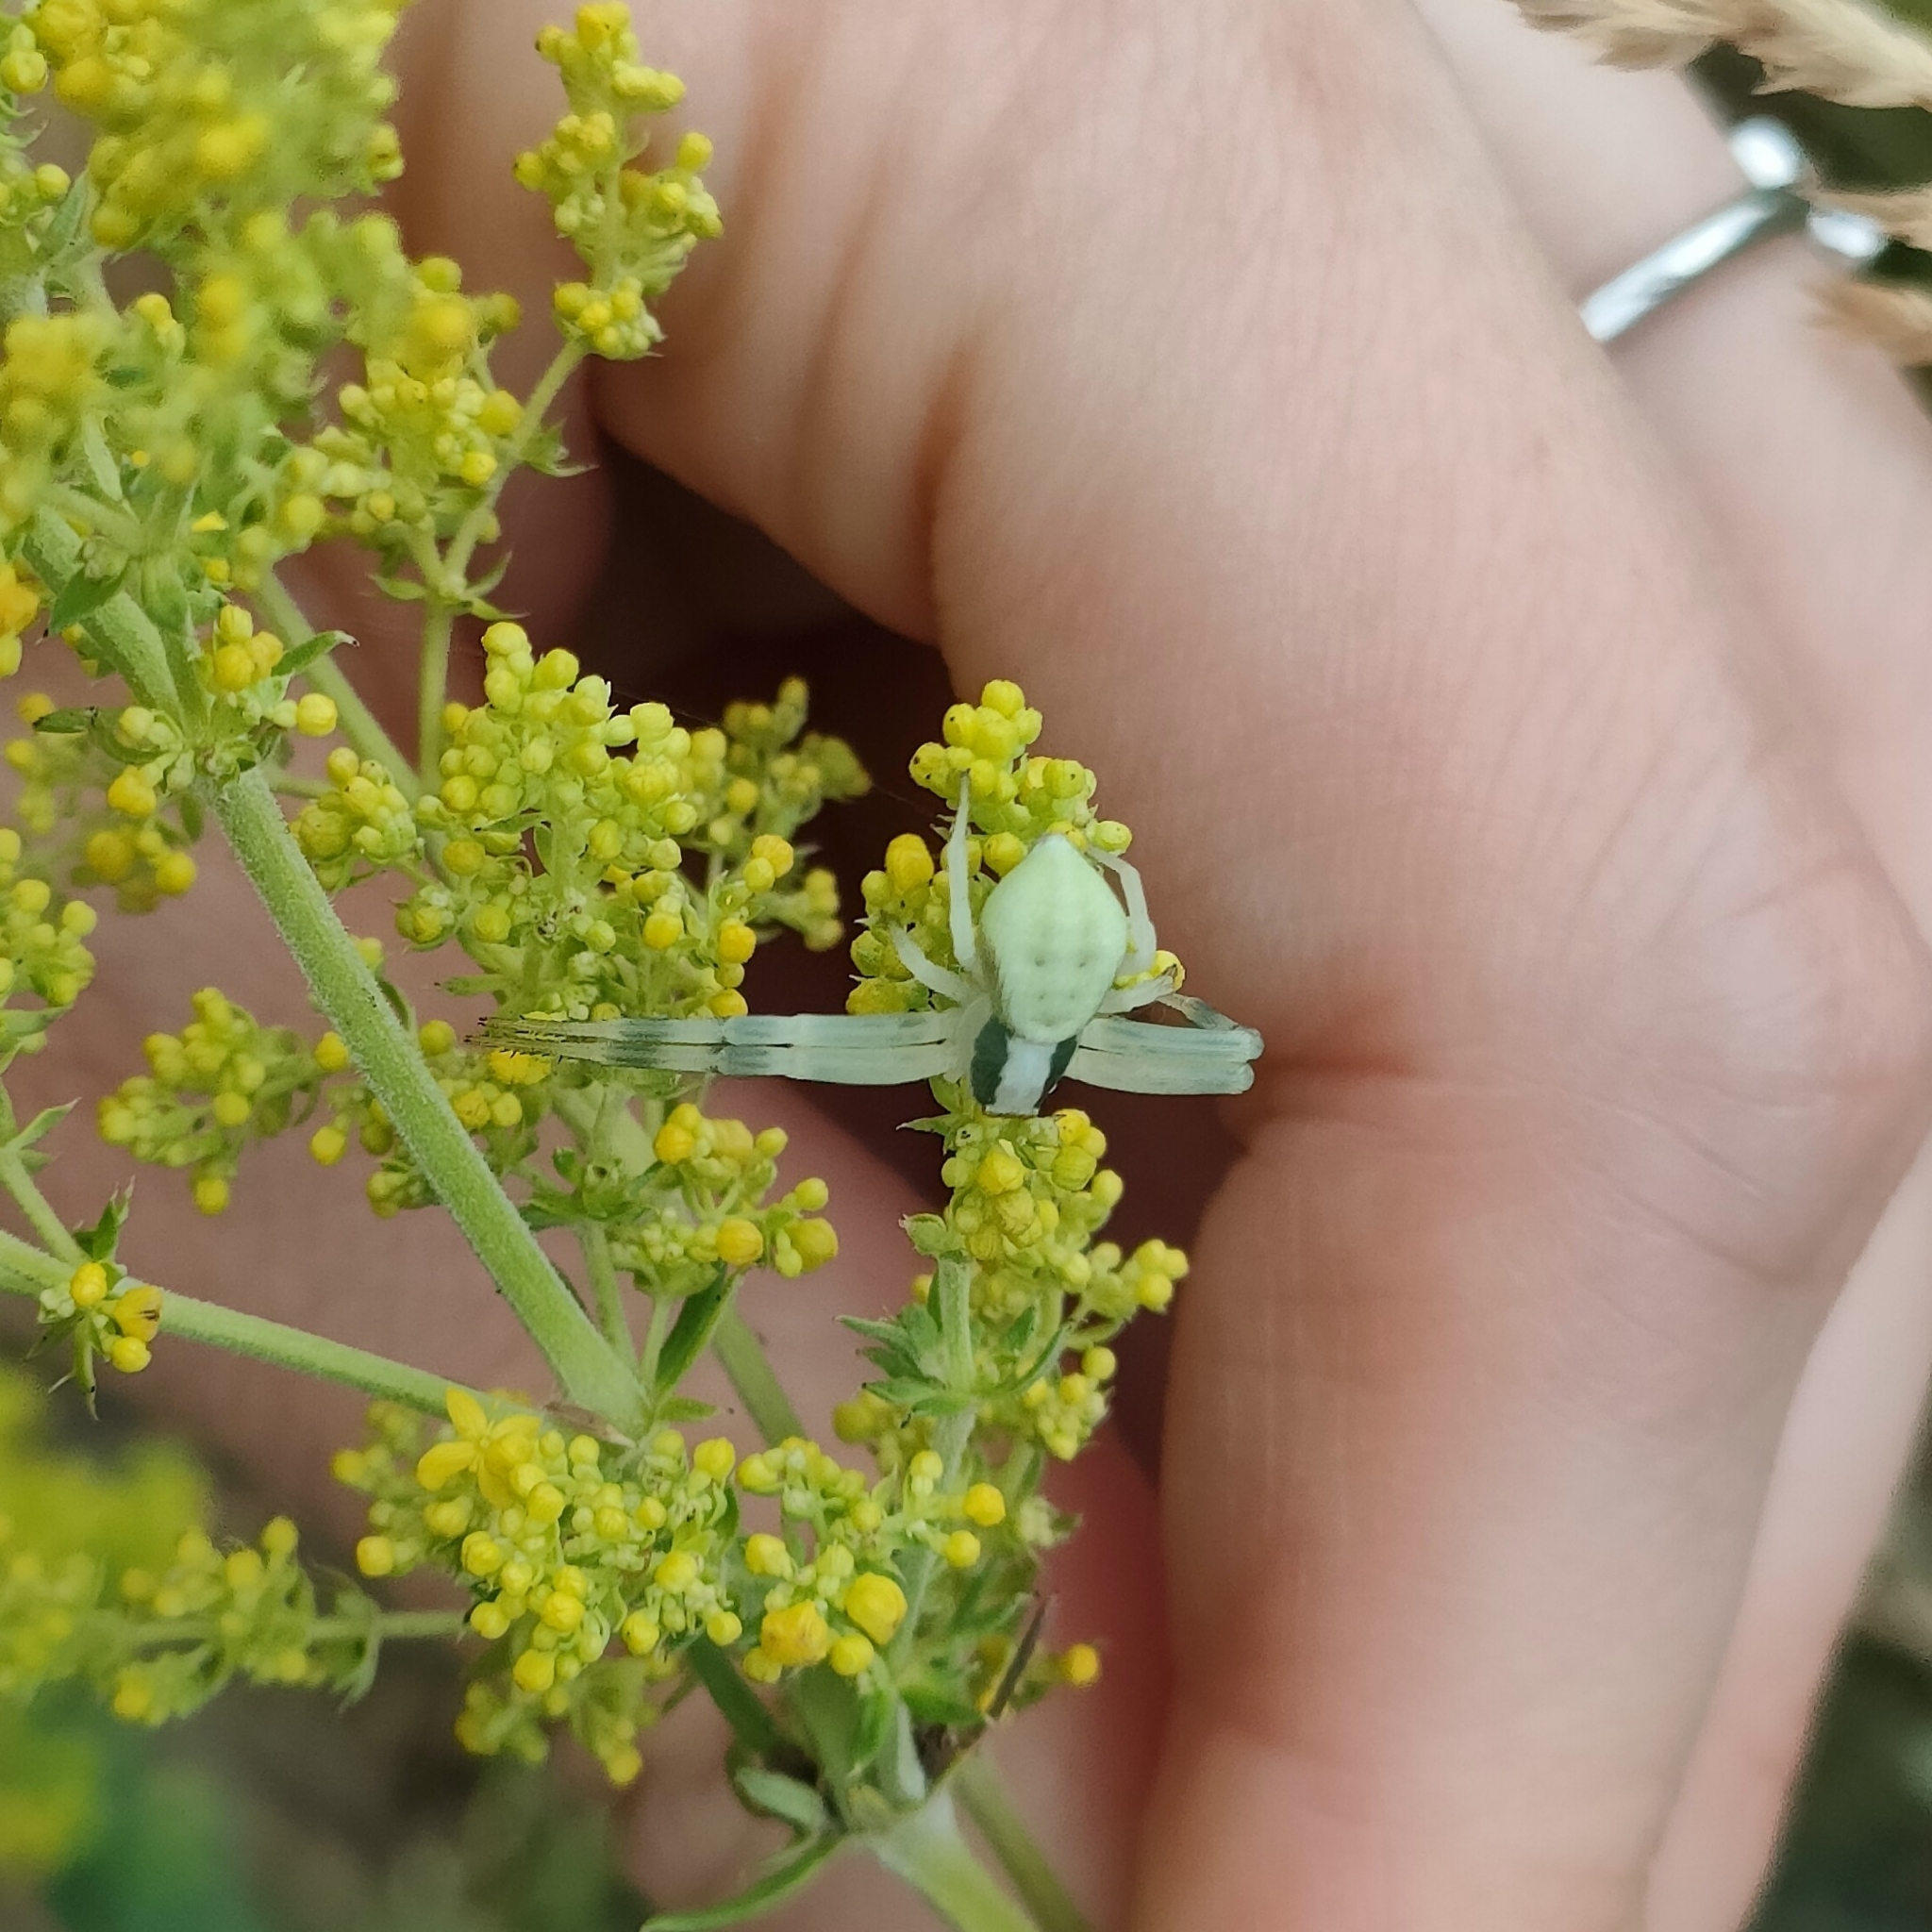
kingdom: Animalia
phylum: Arthropoda
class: Arachnida
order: Araneae
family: Thomisidae
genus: Misumena
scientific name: Misumena vatia
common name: Goldenrod crab spider
